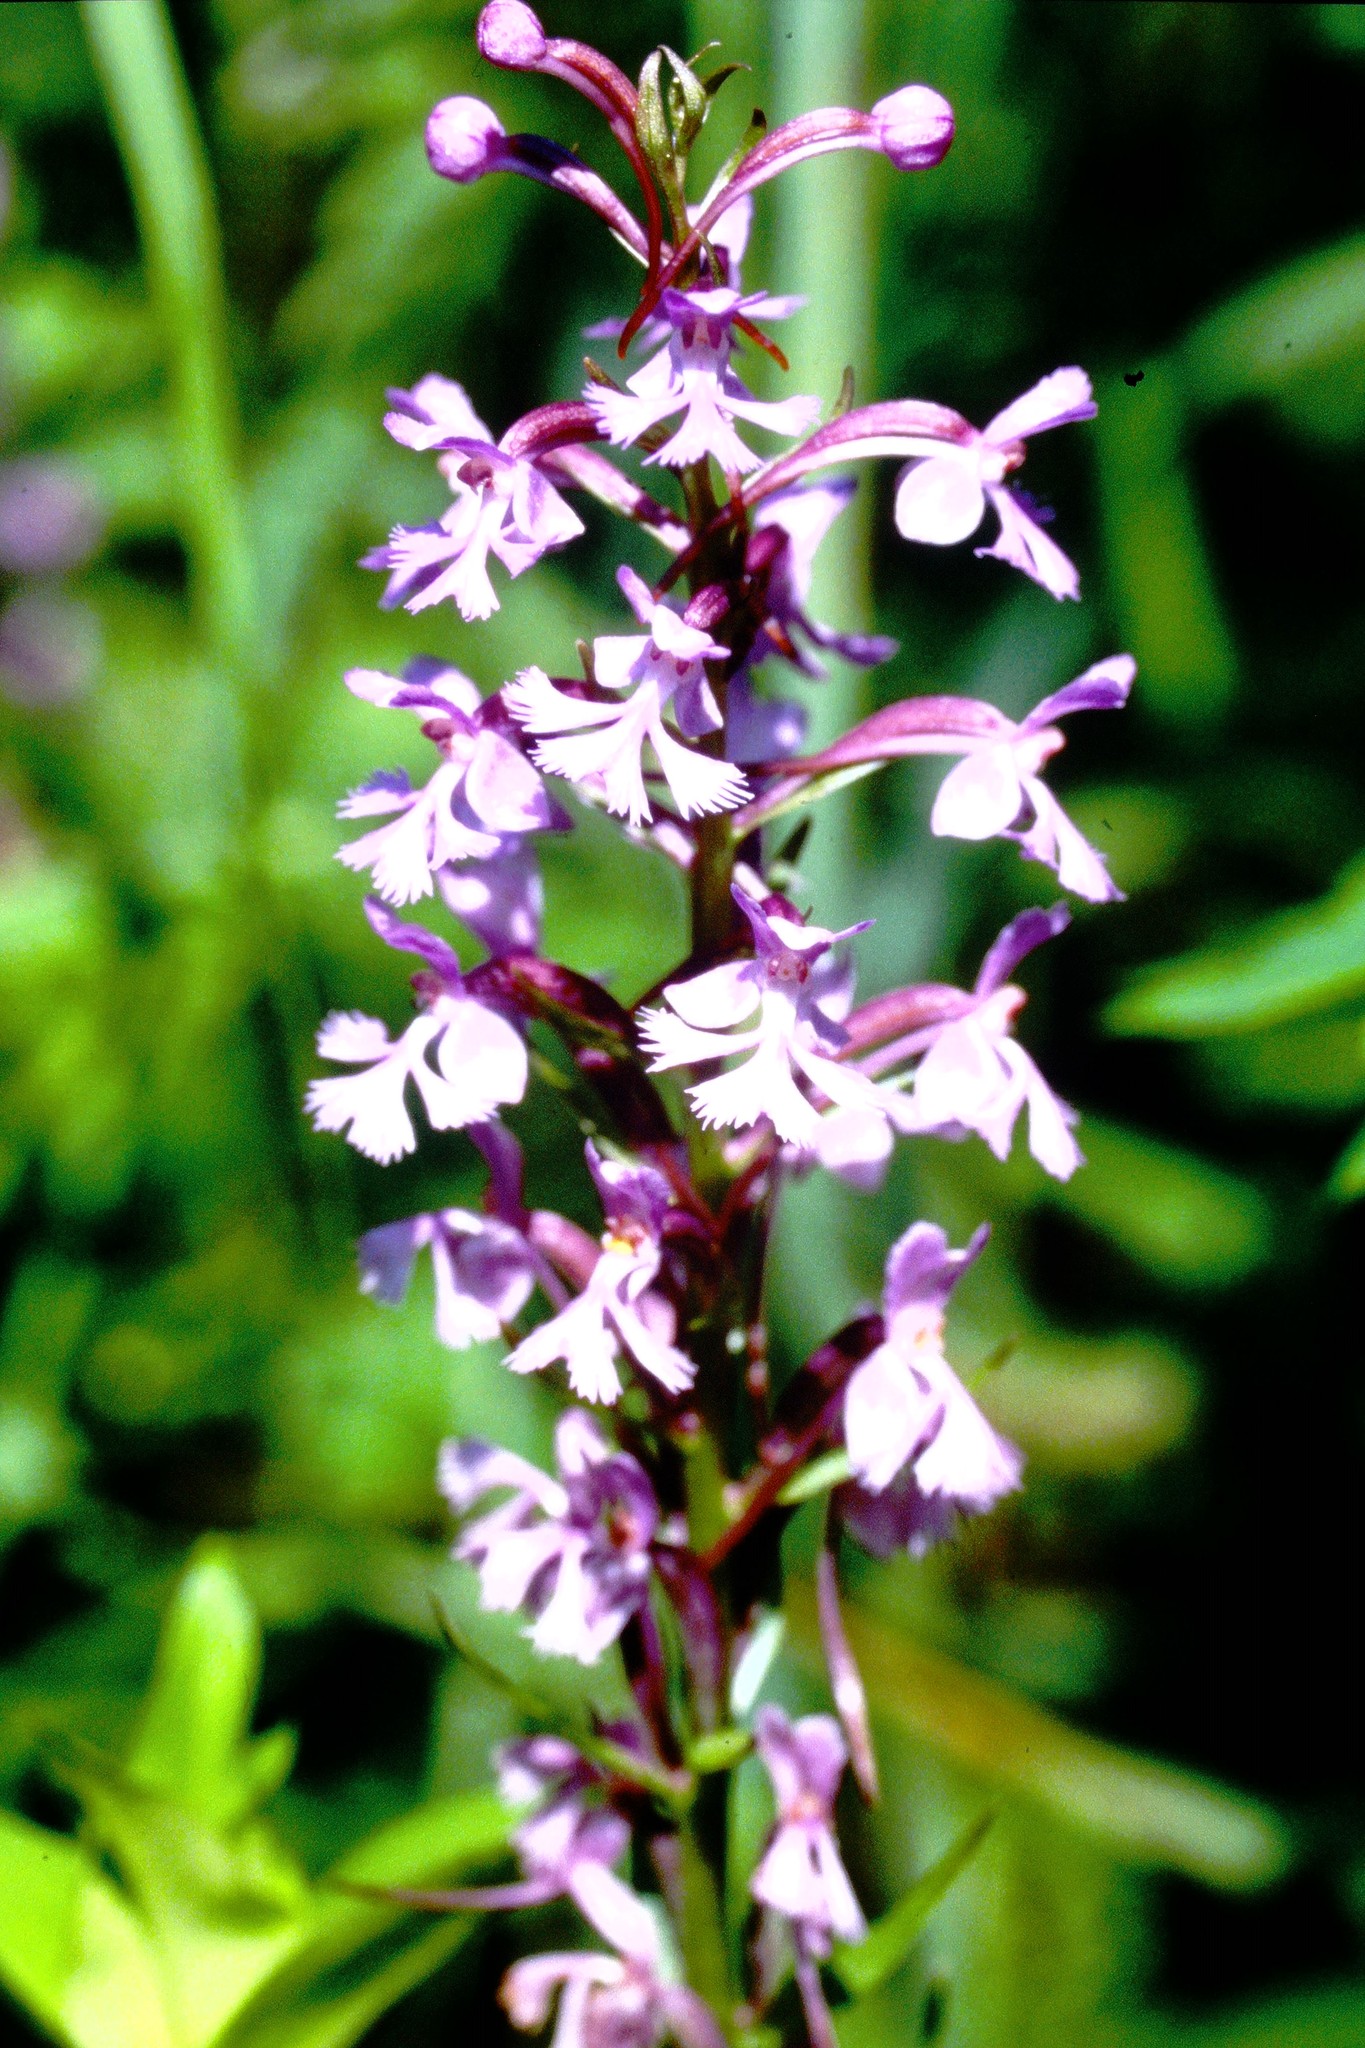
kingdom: Plantae
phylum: Tracheophyta
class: Liliopsida
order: Asparagales
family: Orchidaceae
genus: Platanthera
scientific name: Platanthera psycodes
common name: Lesser purple fringed orchid
